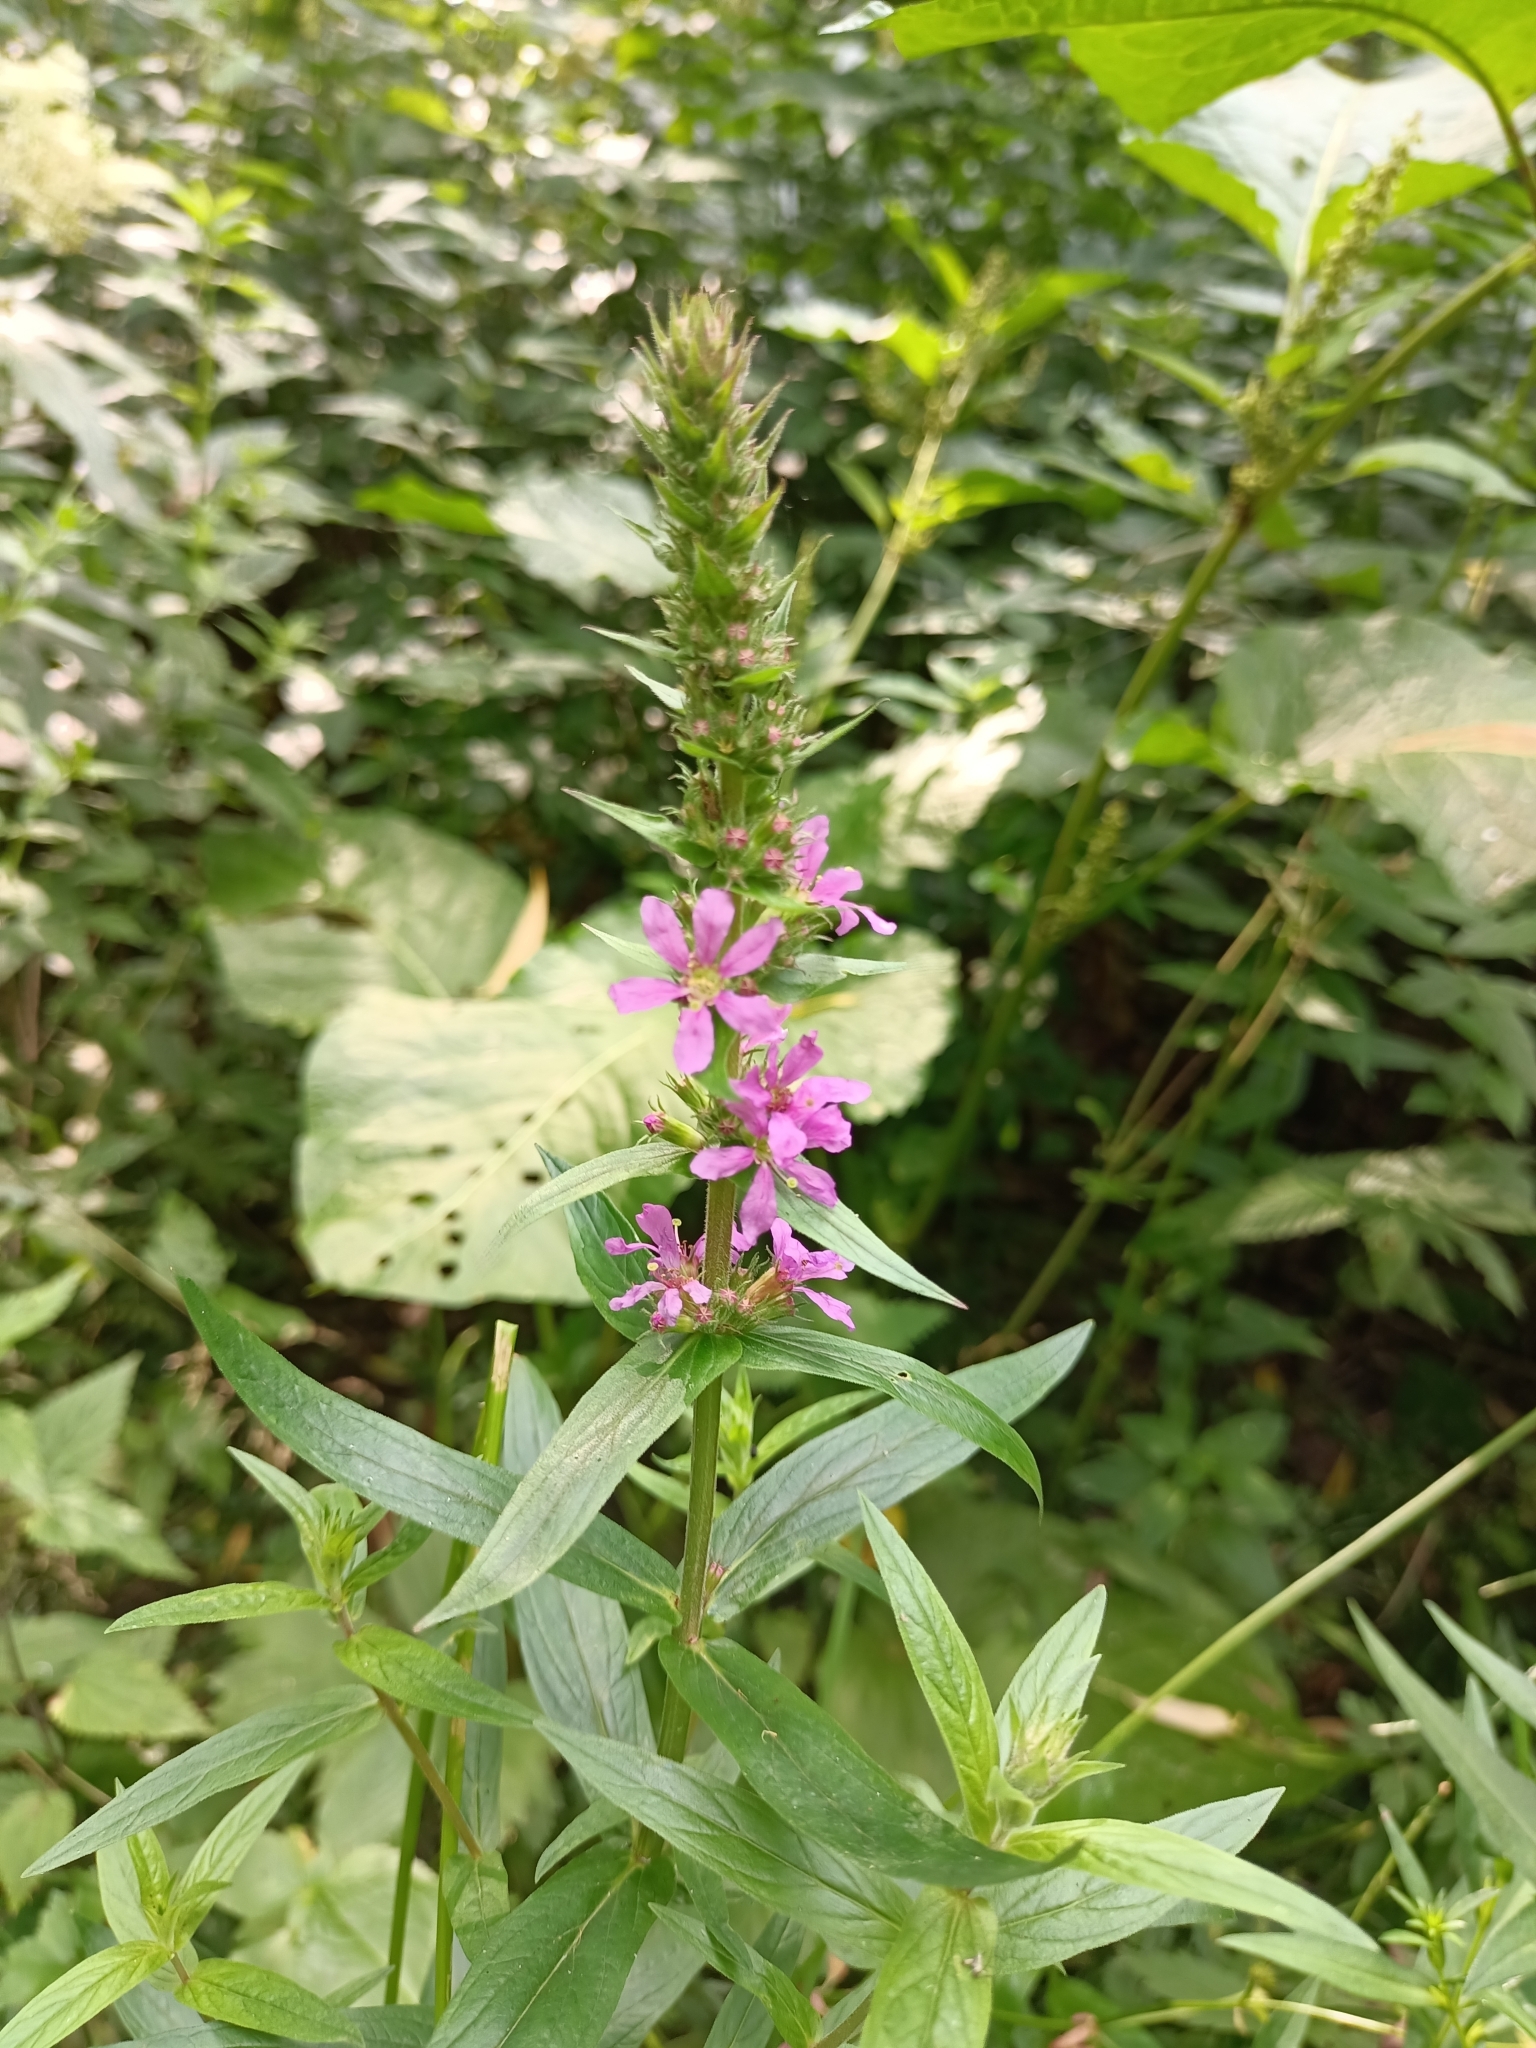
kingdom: Plantae
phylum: Tracheophyta
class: Magnoliopsida
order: Myrtales
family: Lythraceae
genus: Lythrum
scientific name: Lythrum salicaria
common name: Purple loosestrife
